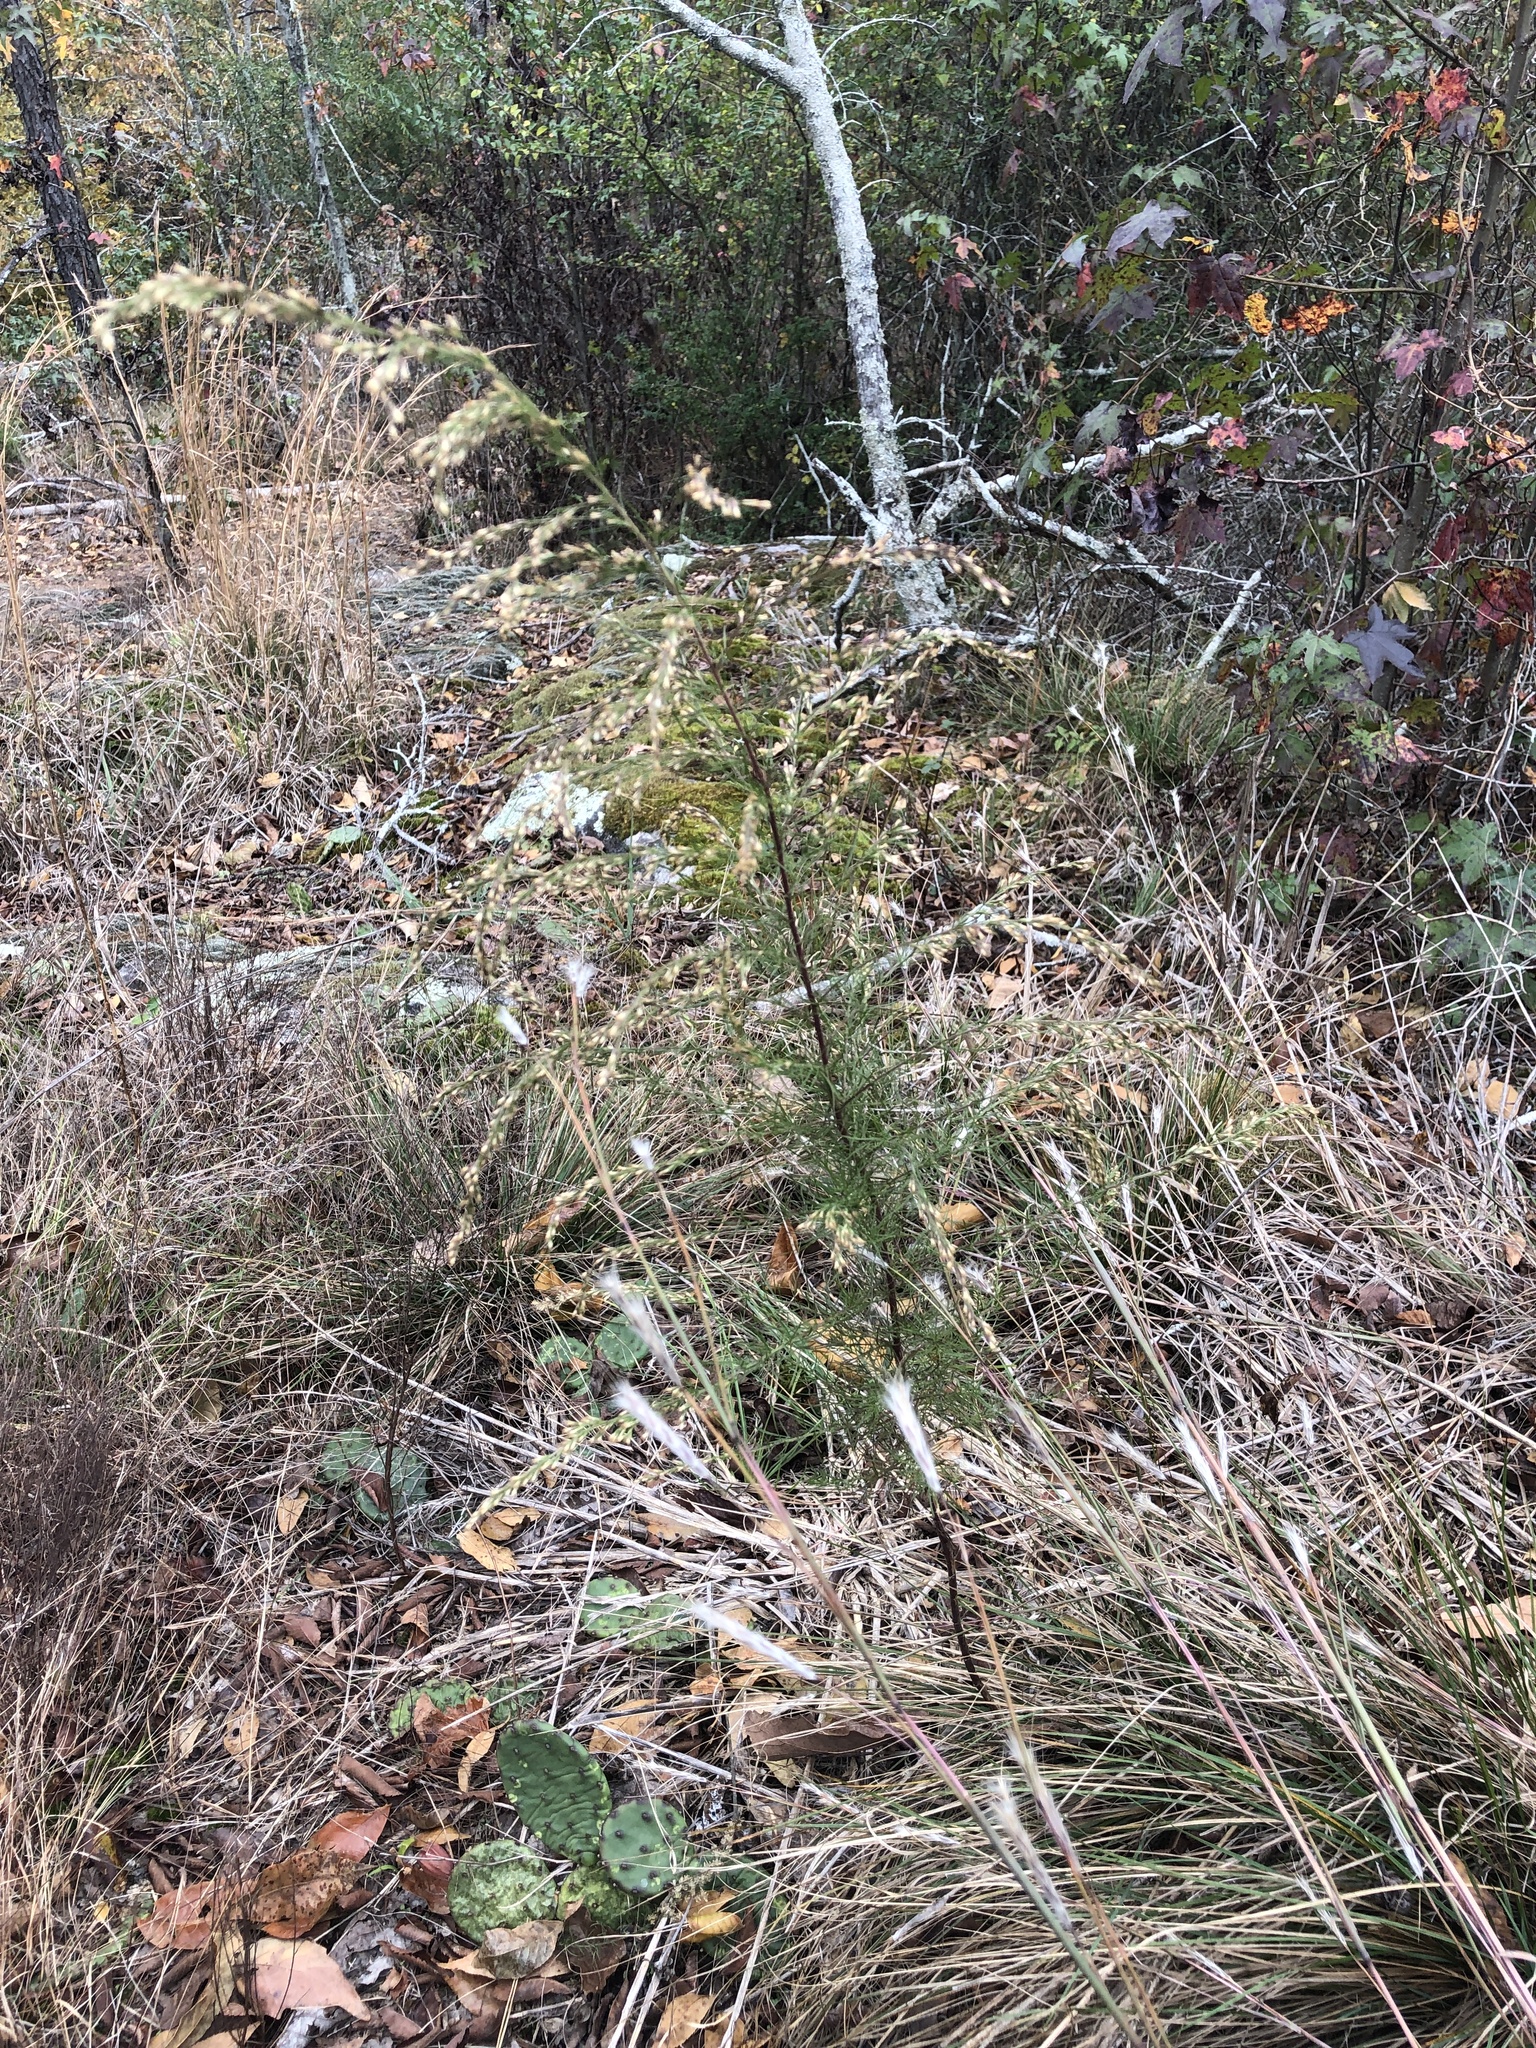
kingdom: Plantae
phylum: Tracheophyta
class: Magnoliopsida
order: Asterales
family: Asteraceae
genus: Eupatorium
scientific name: Eupatorium capillifolium
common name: Dog-fennel
